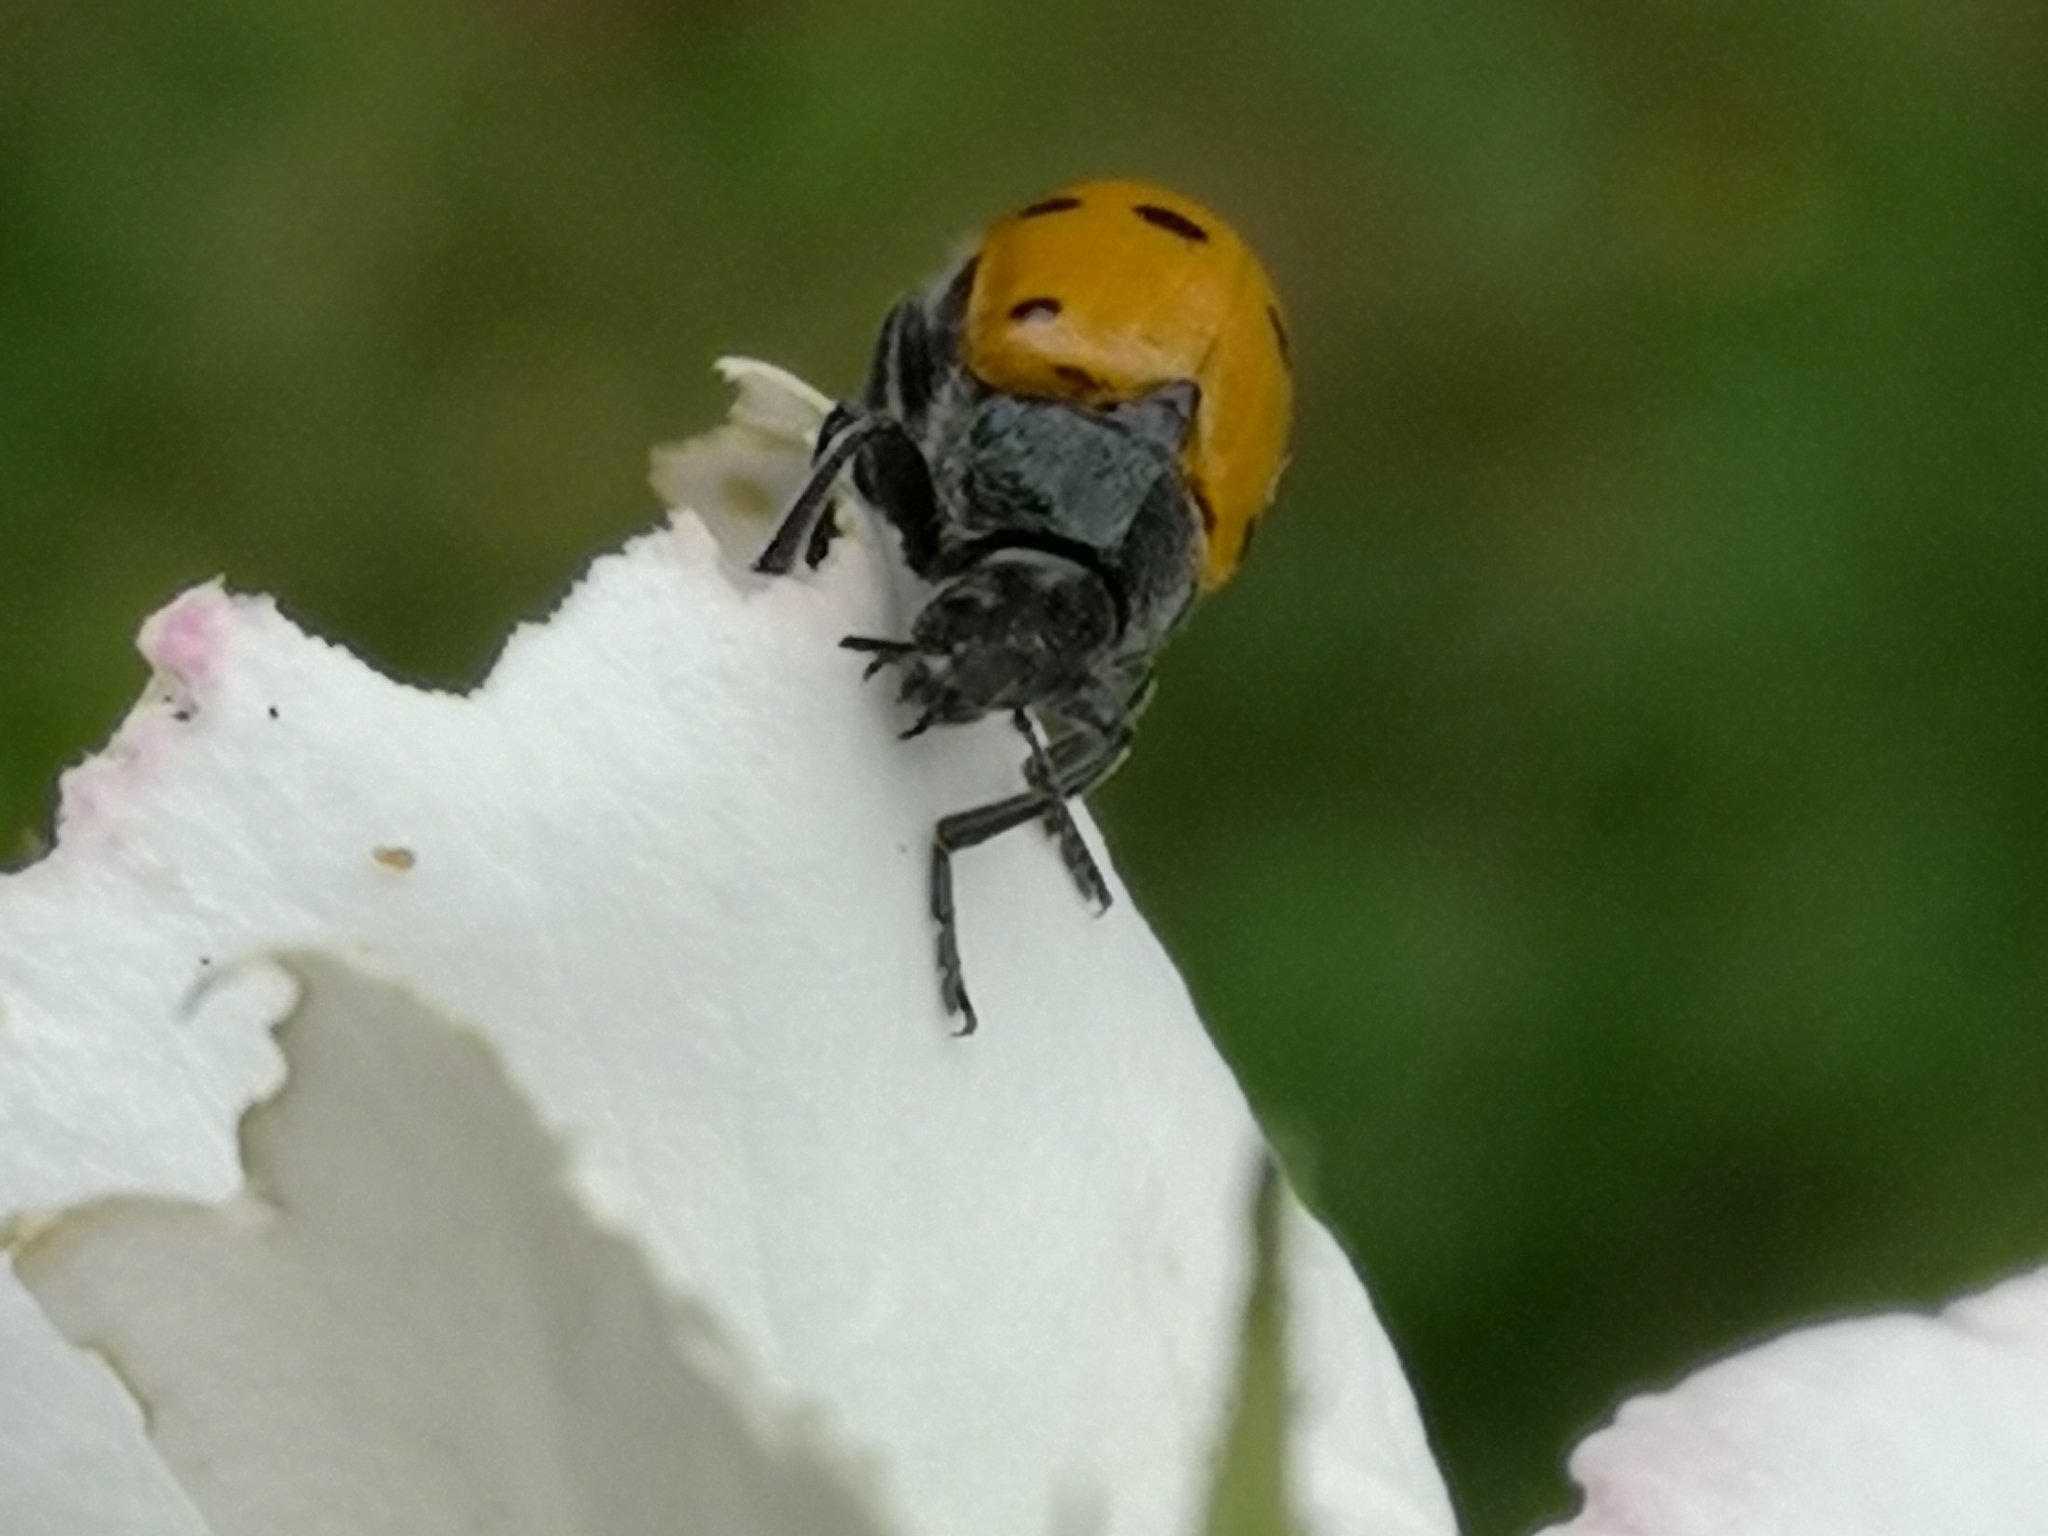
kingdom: Animalia
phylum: Arthropoda
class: Insecta
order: Coleoptera
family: Chrysomelidae
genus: Lachnaia
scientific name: Lachnaia italica
